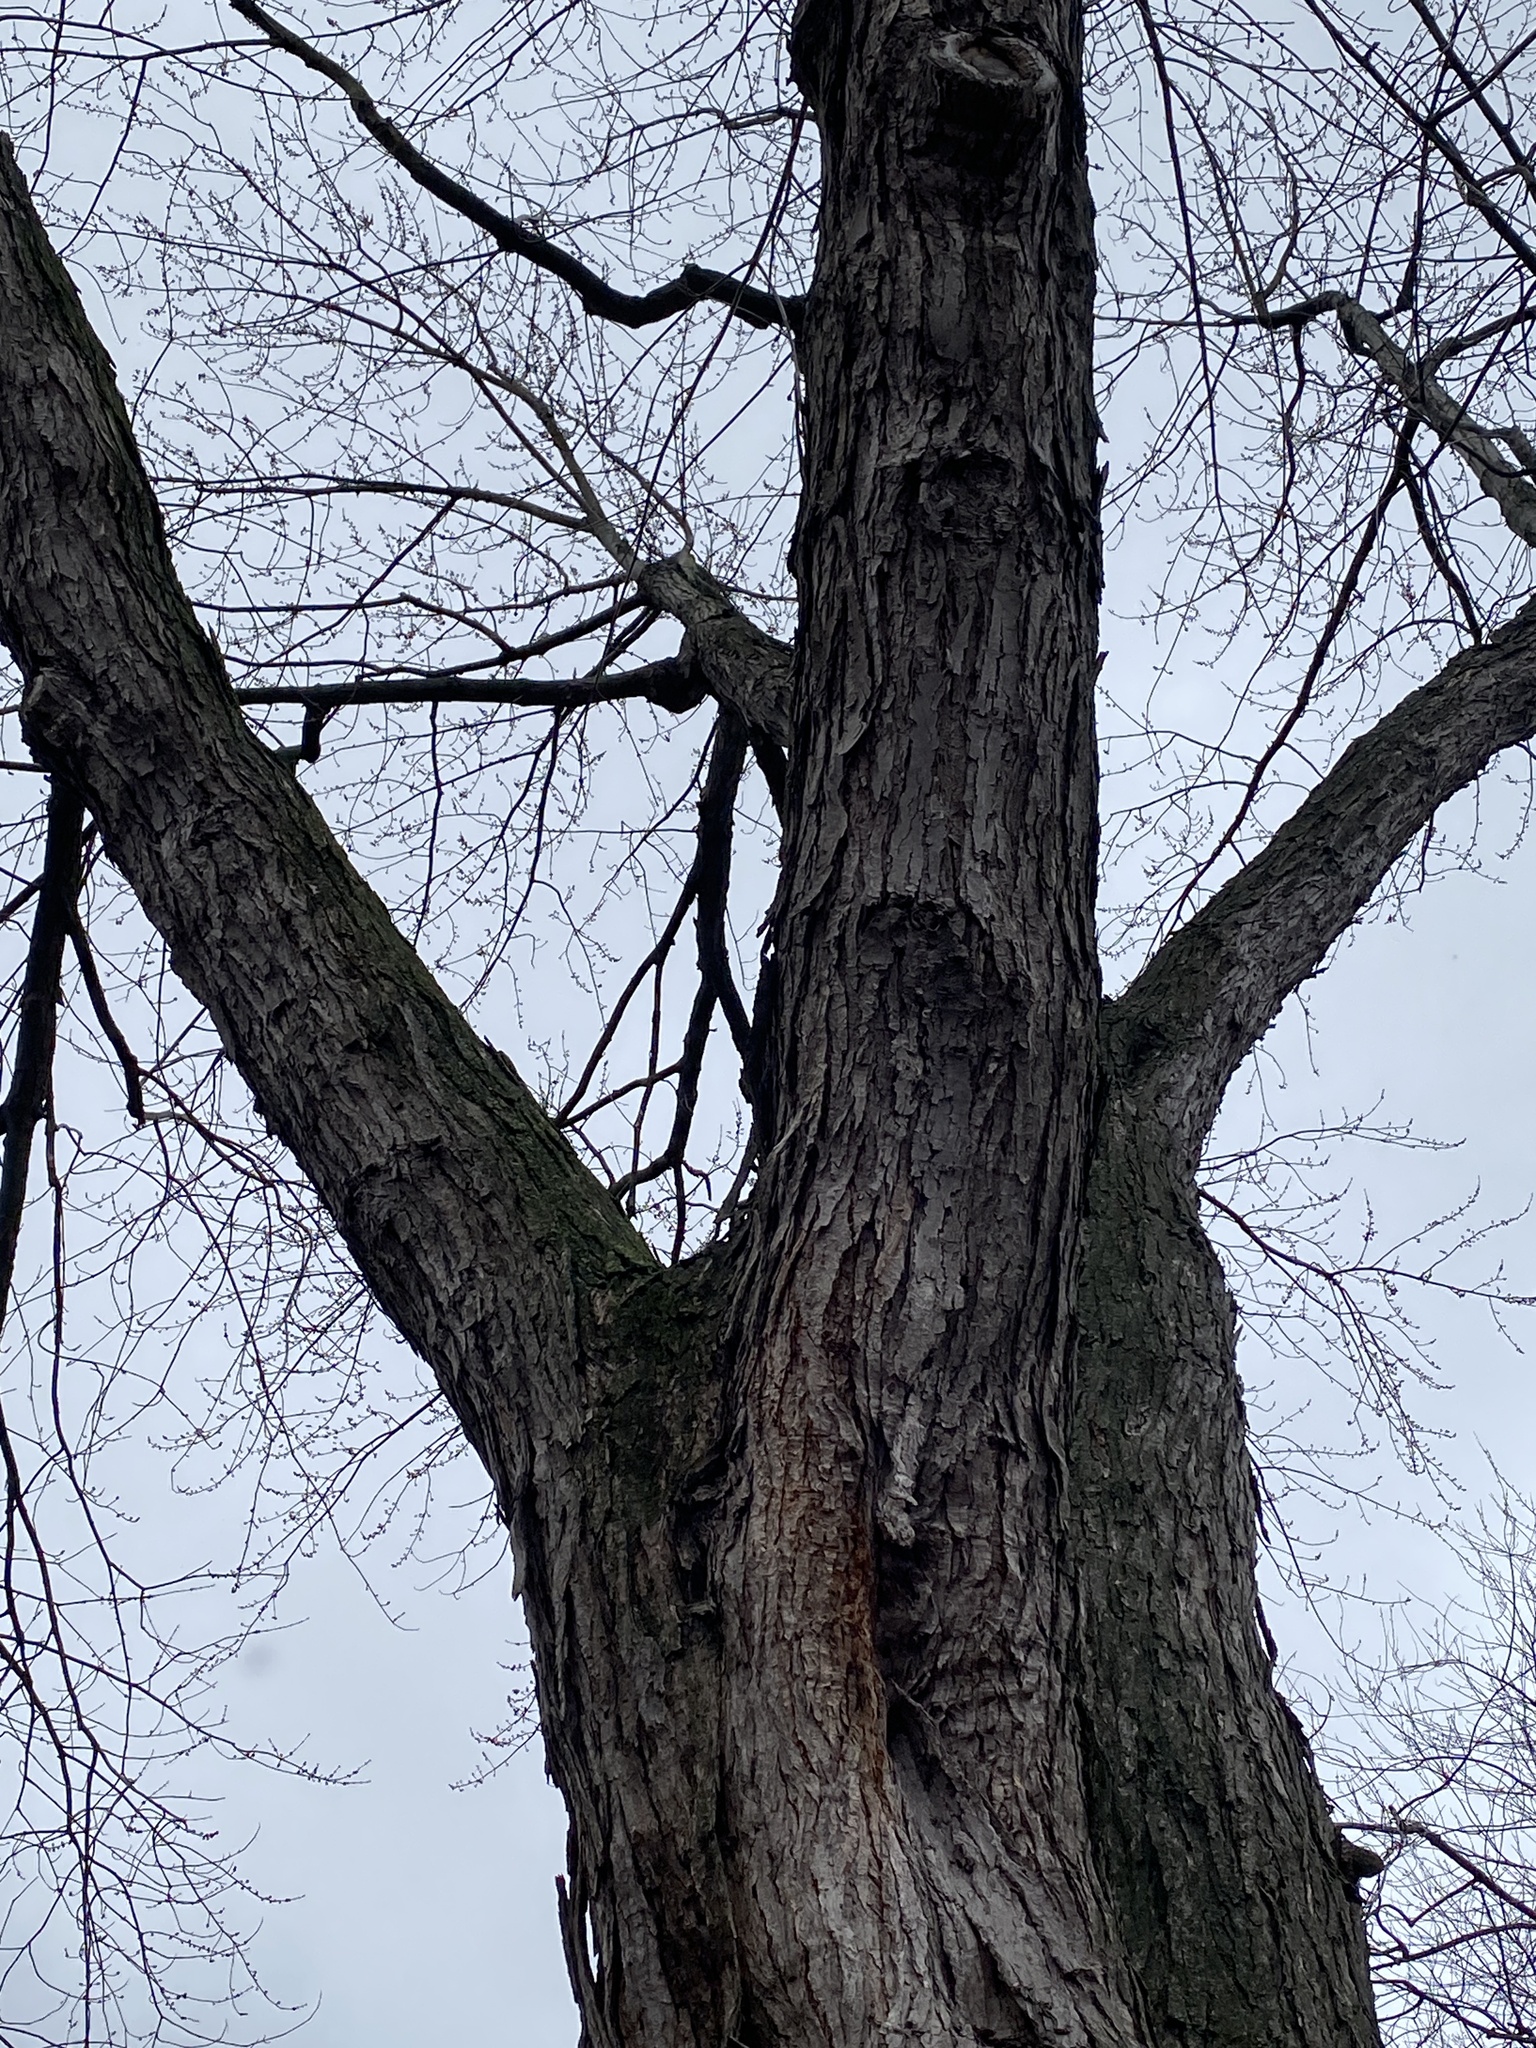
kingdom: Plantae
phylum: Tracheophyta
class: Magnoliopsida
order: Sapindales
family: Sapindaceae
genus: Acer
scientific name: Acer saccharinum
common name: Silver maple
